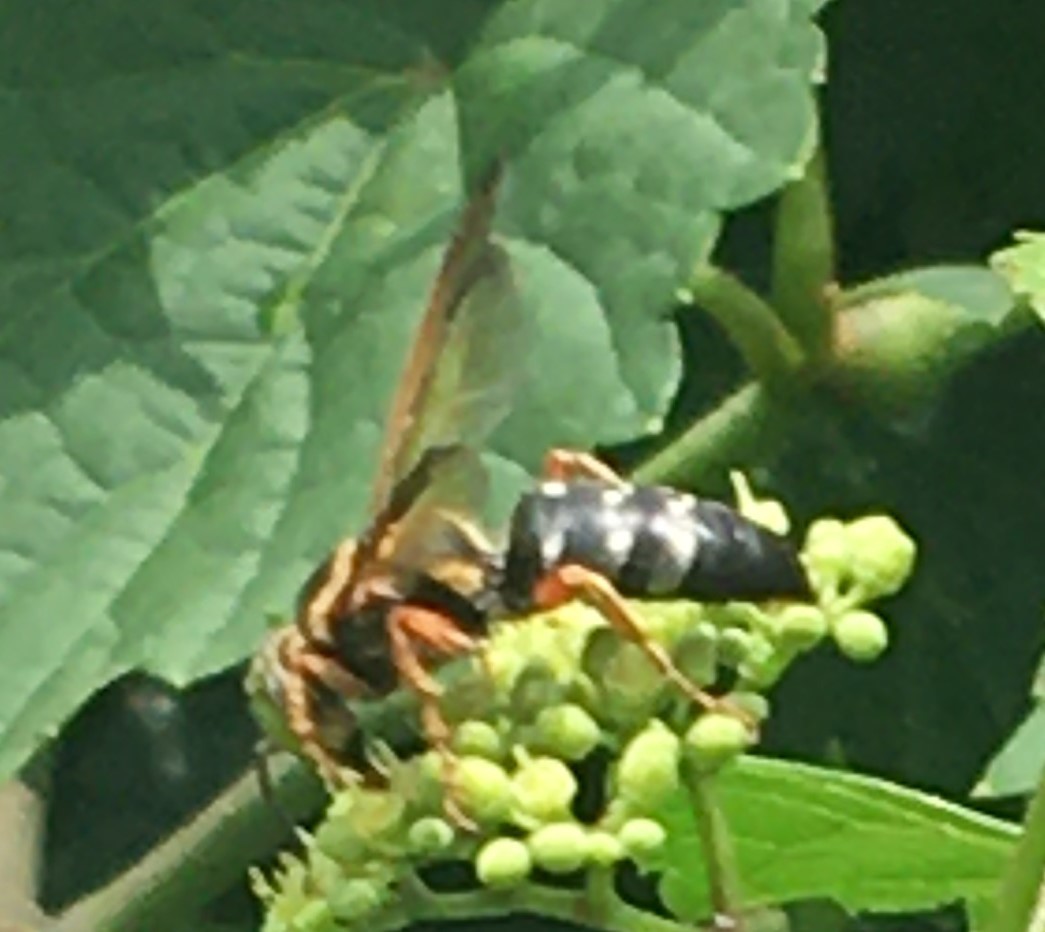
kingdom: Animalia
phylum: Arthropoda
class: Insecta
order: Hymenoptera
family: Crabronidae
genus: Sphecius
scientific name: Sphecius speciosus
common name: Cicada killer
